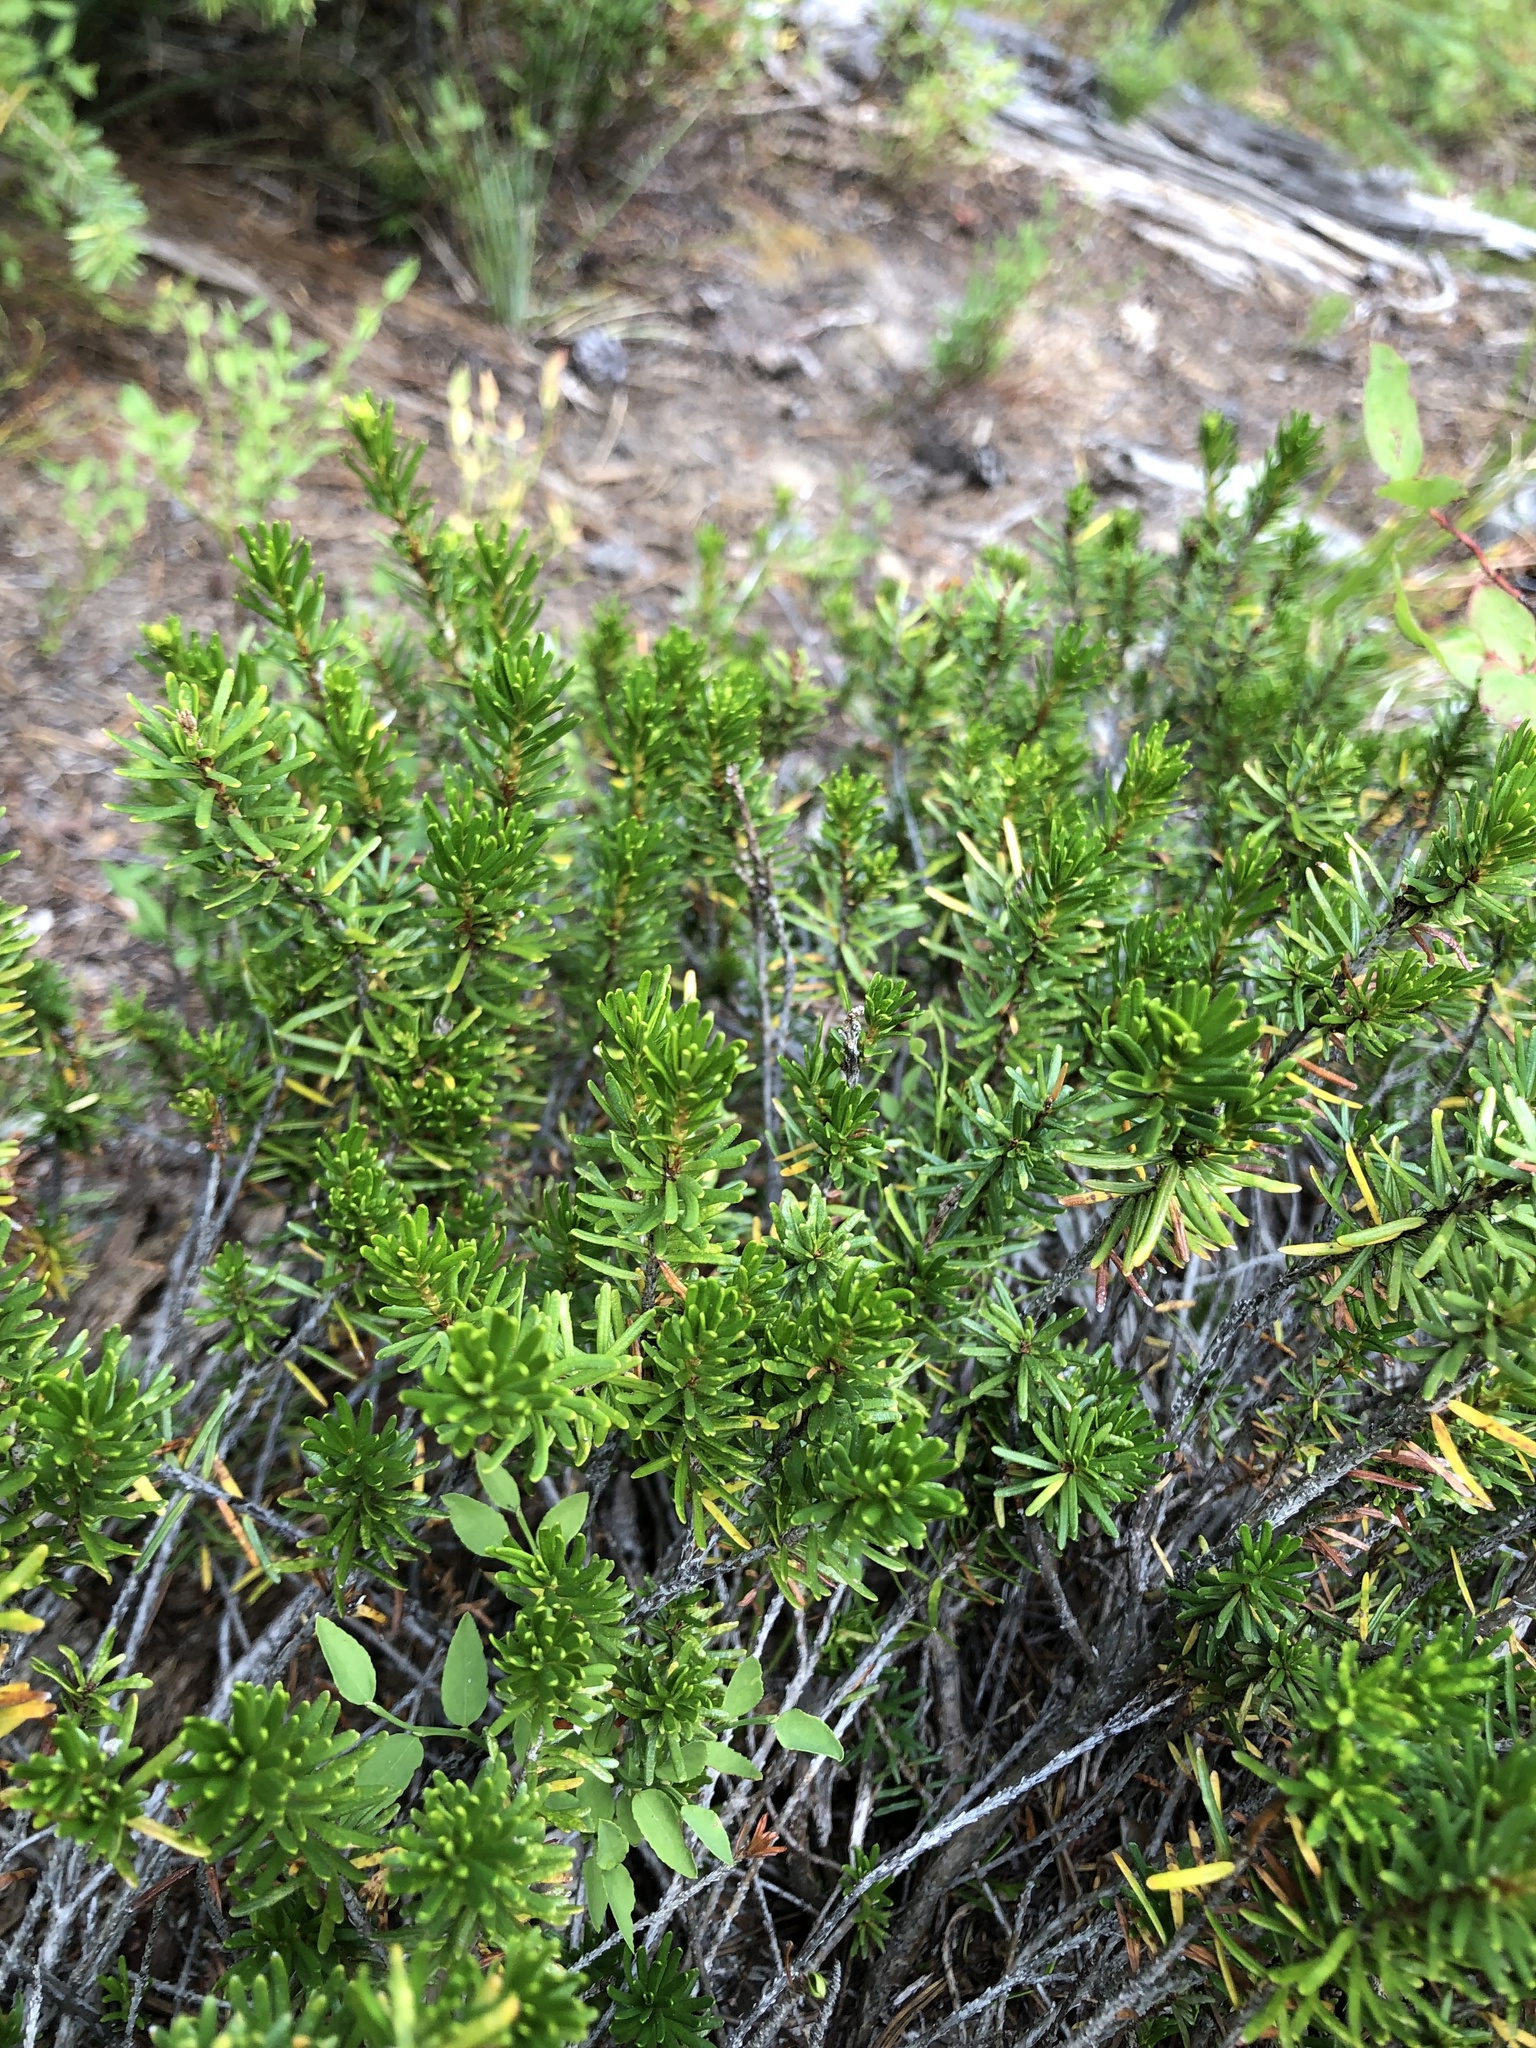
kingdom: Plantae
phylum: Tracheophyta
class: Magnoliopsida
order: Ericales
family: Ericaceae
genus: Phyllodoce
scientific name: Phyllodoce empetriformis
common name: Pink mountain heather
